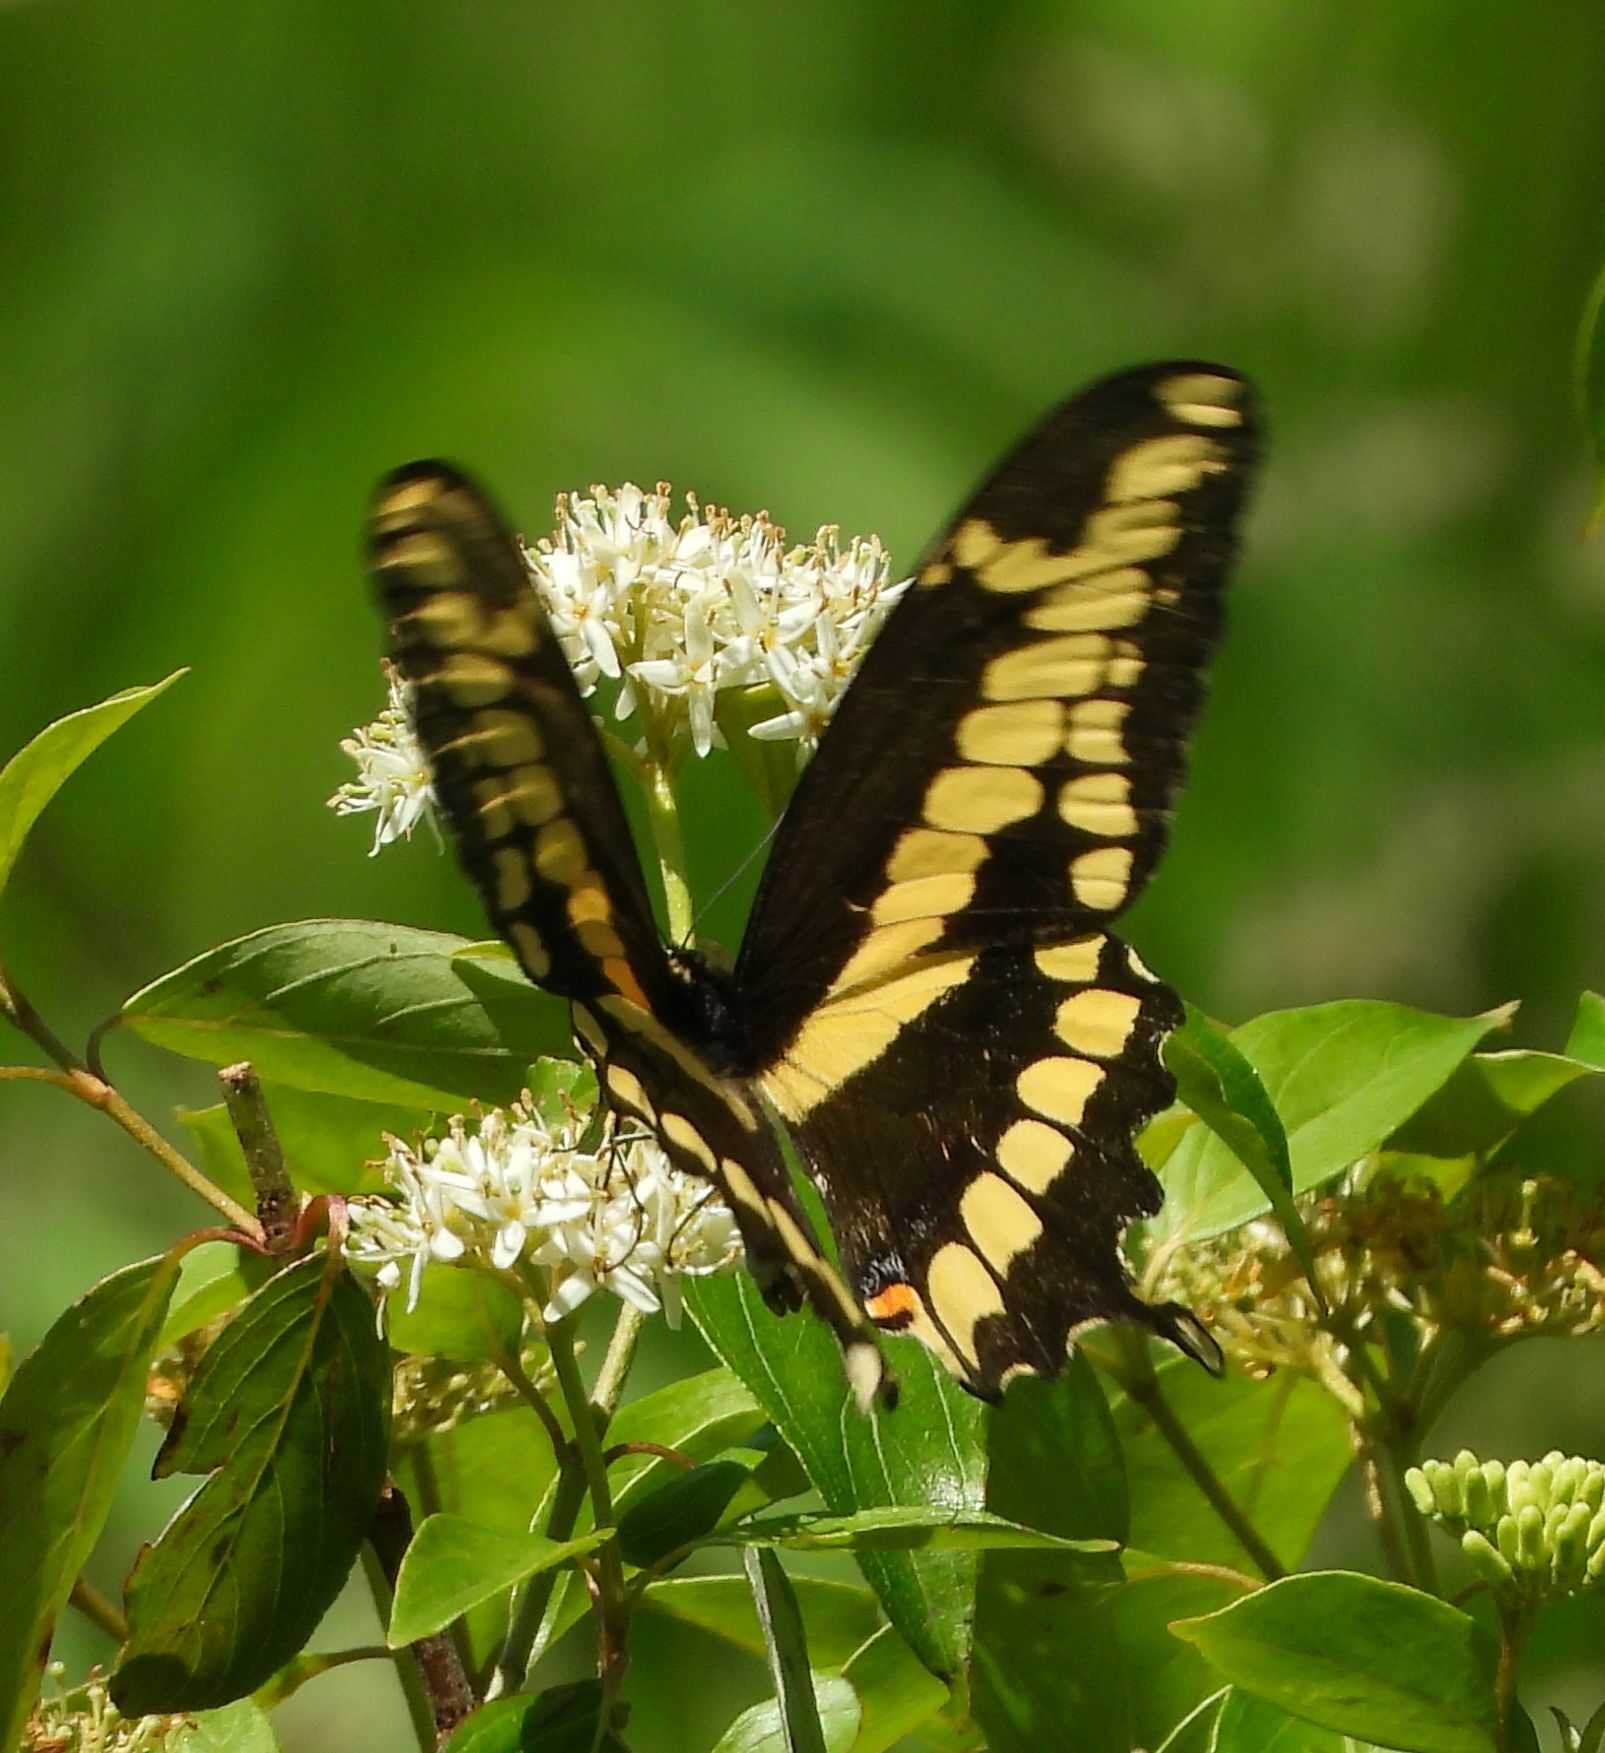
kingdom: Animalia
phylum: Arthropoda
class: Insecta
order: Lepidoptera
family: Papilionidae
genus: Papilio
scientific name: Papilio cresphontes
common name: Giant swallowtail
